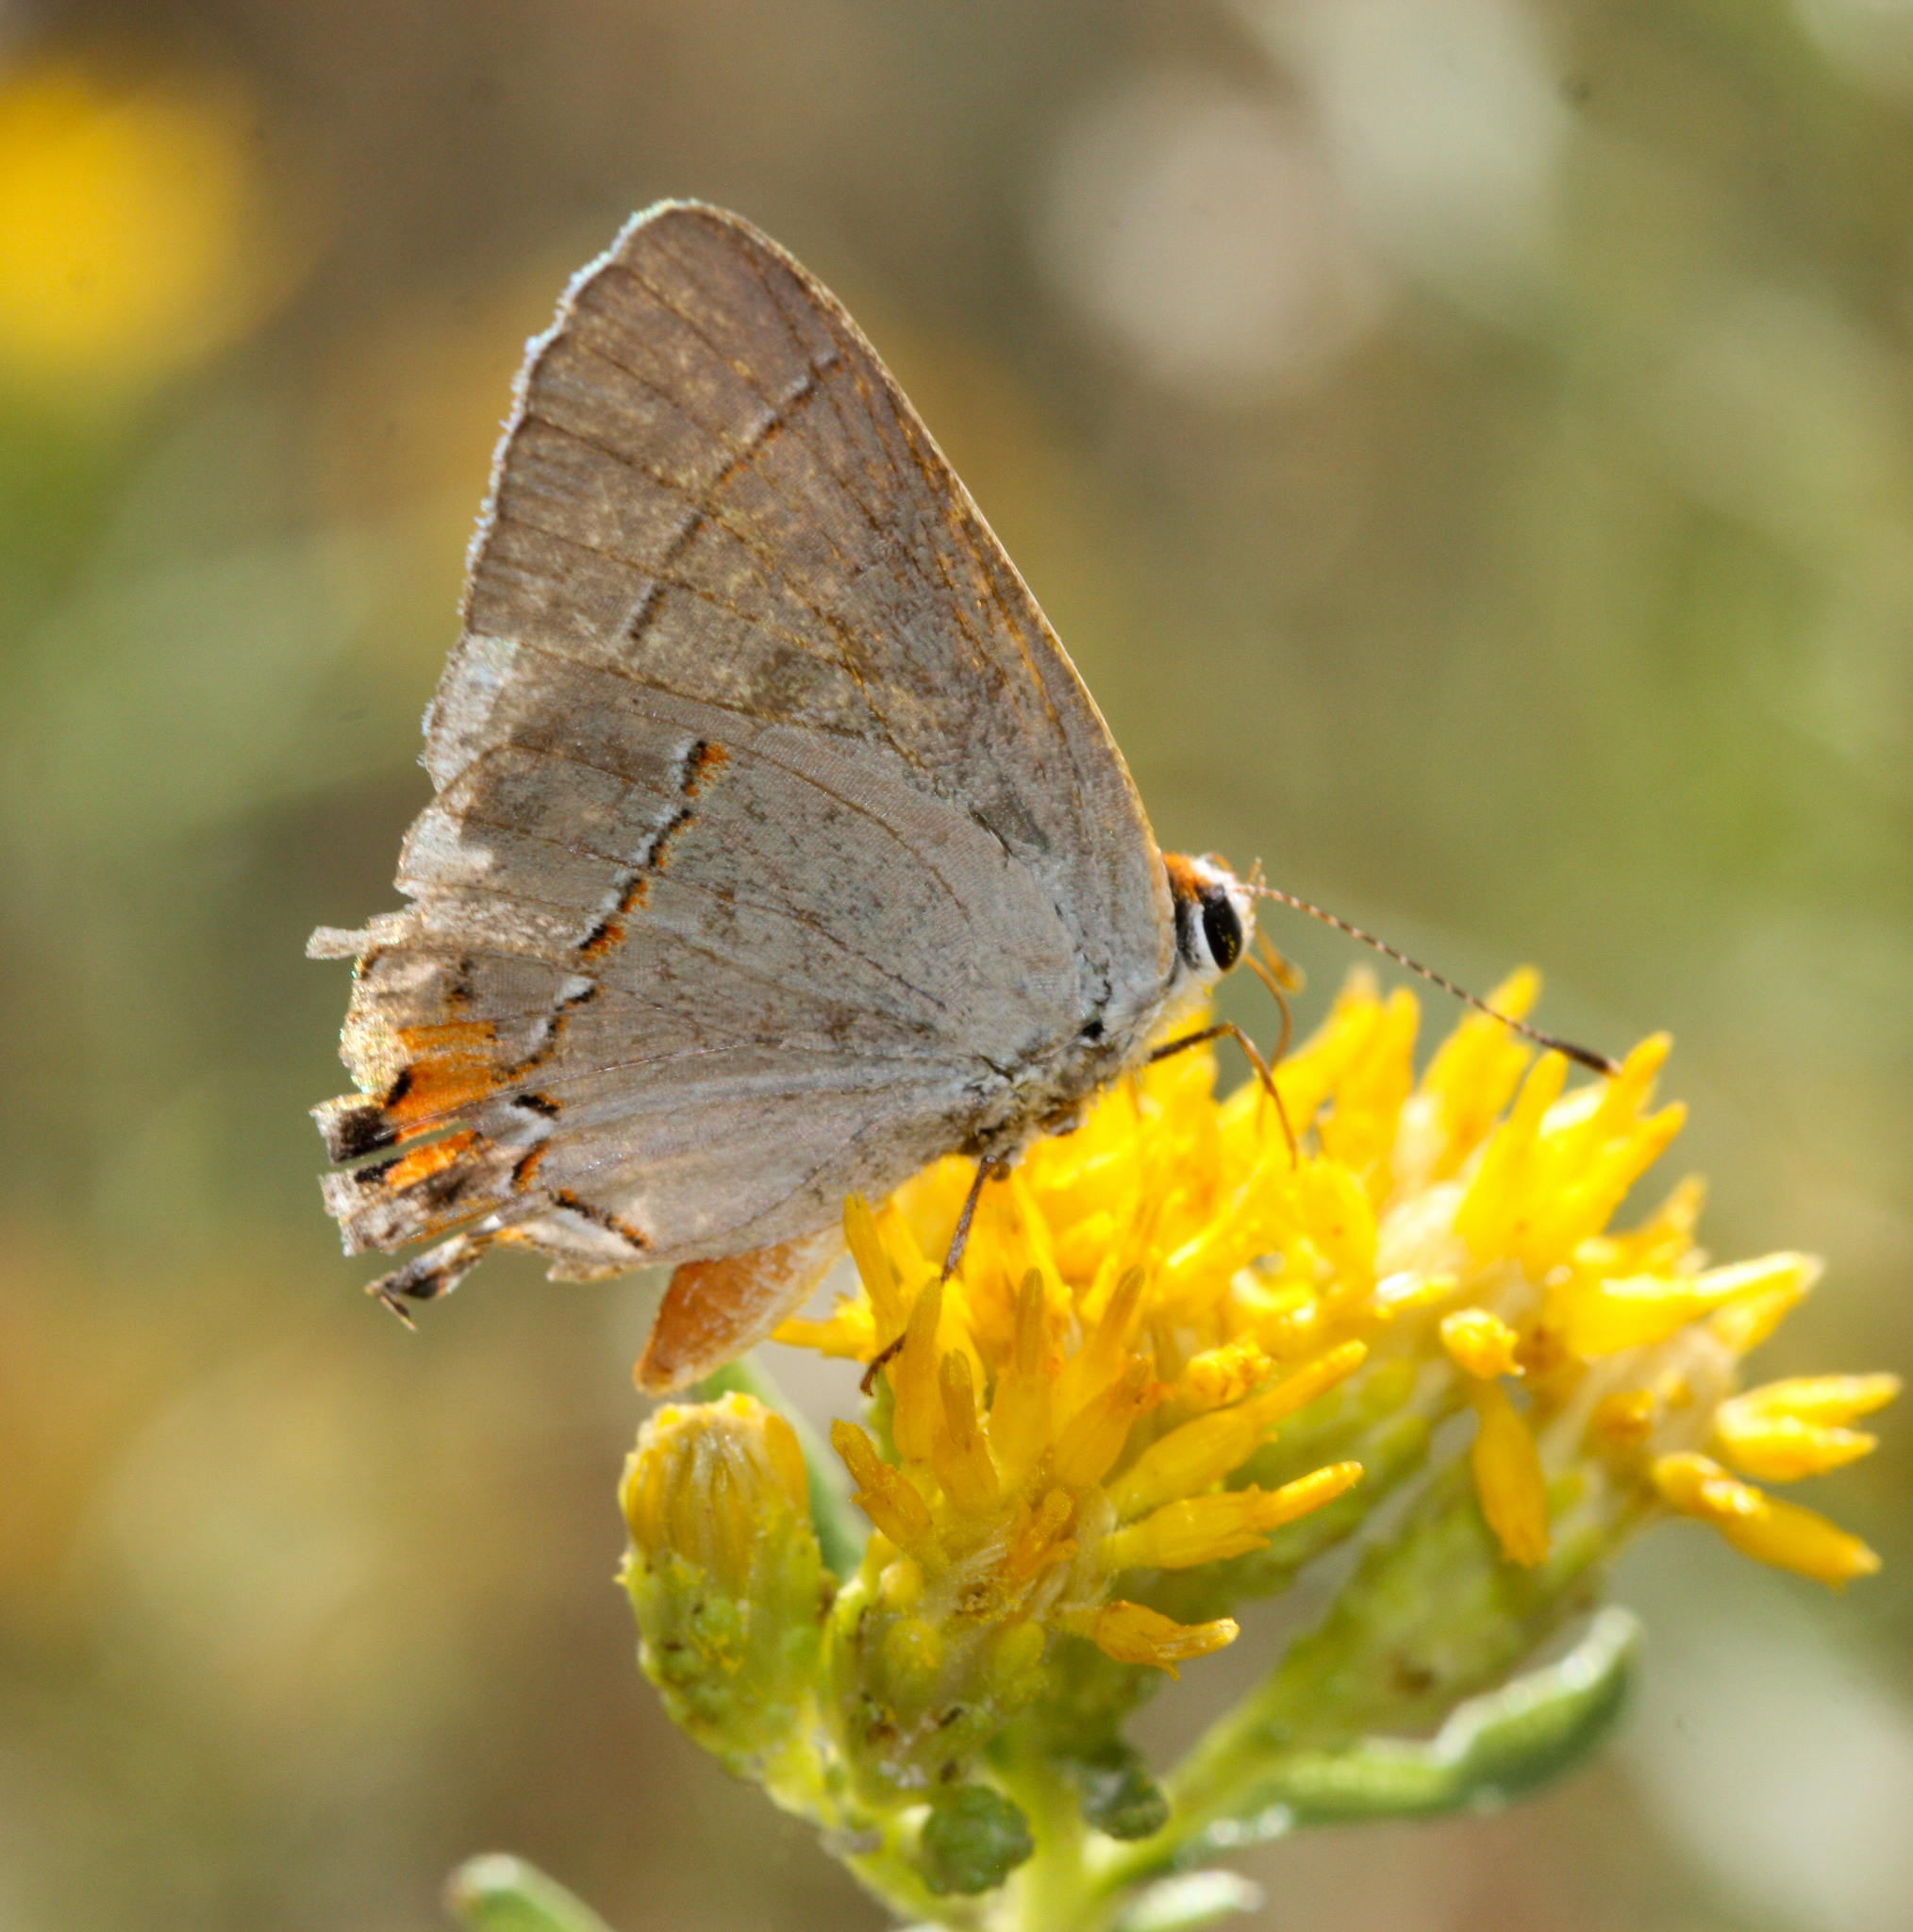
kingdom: Animalia
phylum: Arthropoda
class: Insecta
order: Lepidoptera
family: Lycaenidae
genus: Strymon
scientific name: Strymon melinus
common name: Gray hairstreak
